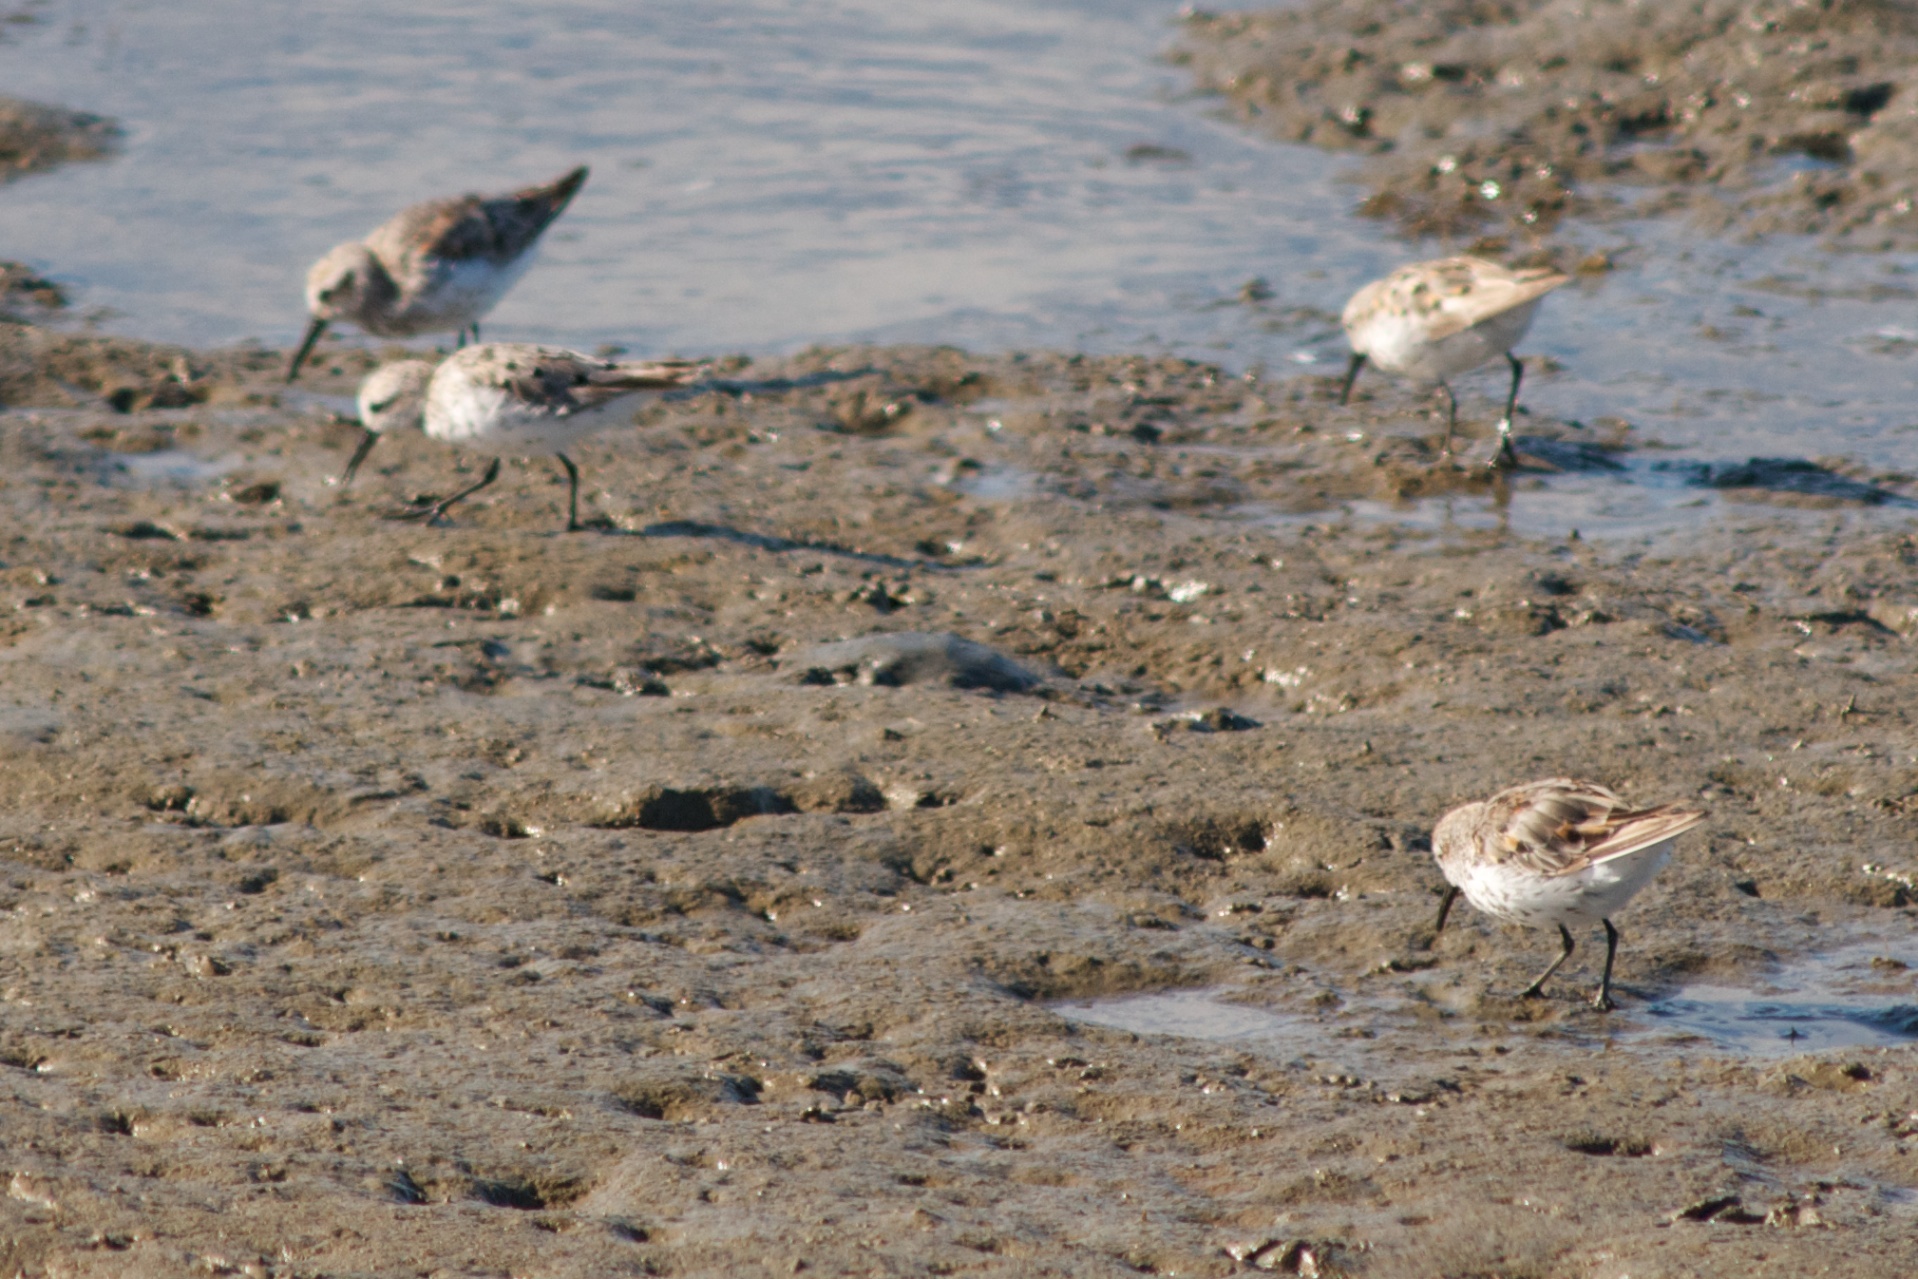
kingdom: Animalia
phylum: Chordata
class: Aves
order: Charadriiformes
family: Scolopacidae
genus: Calidris
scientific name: Calidris mauri
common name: Western sandpiper
